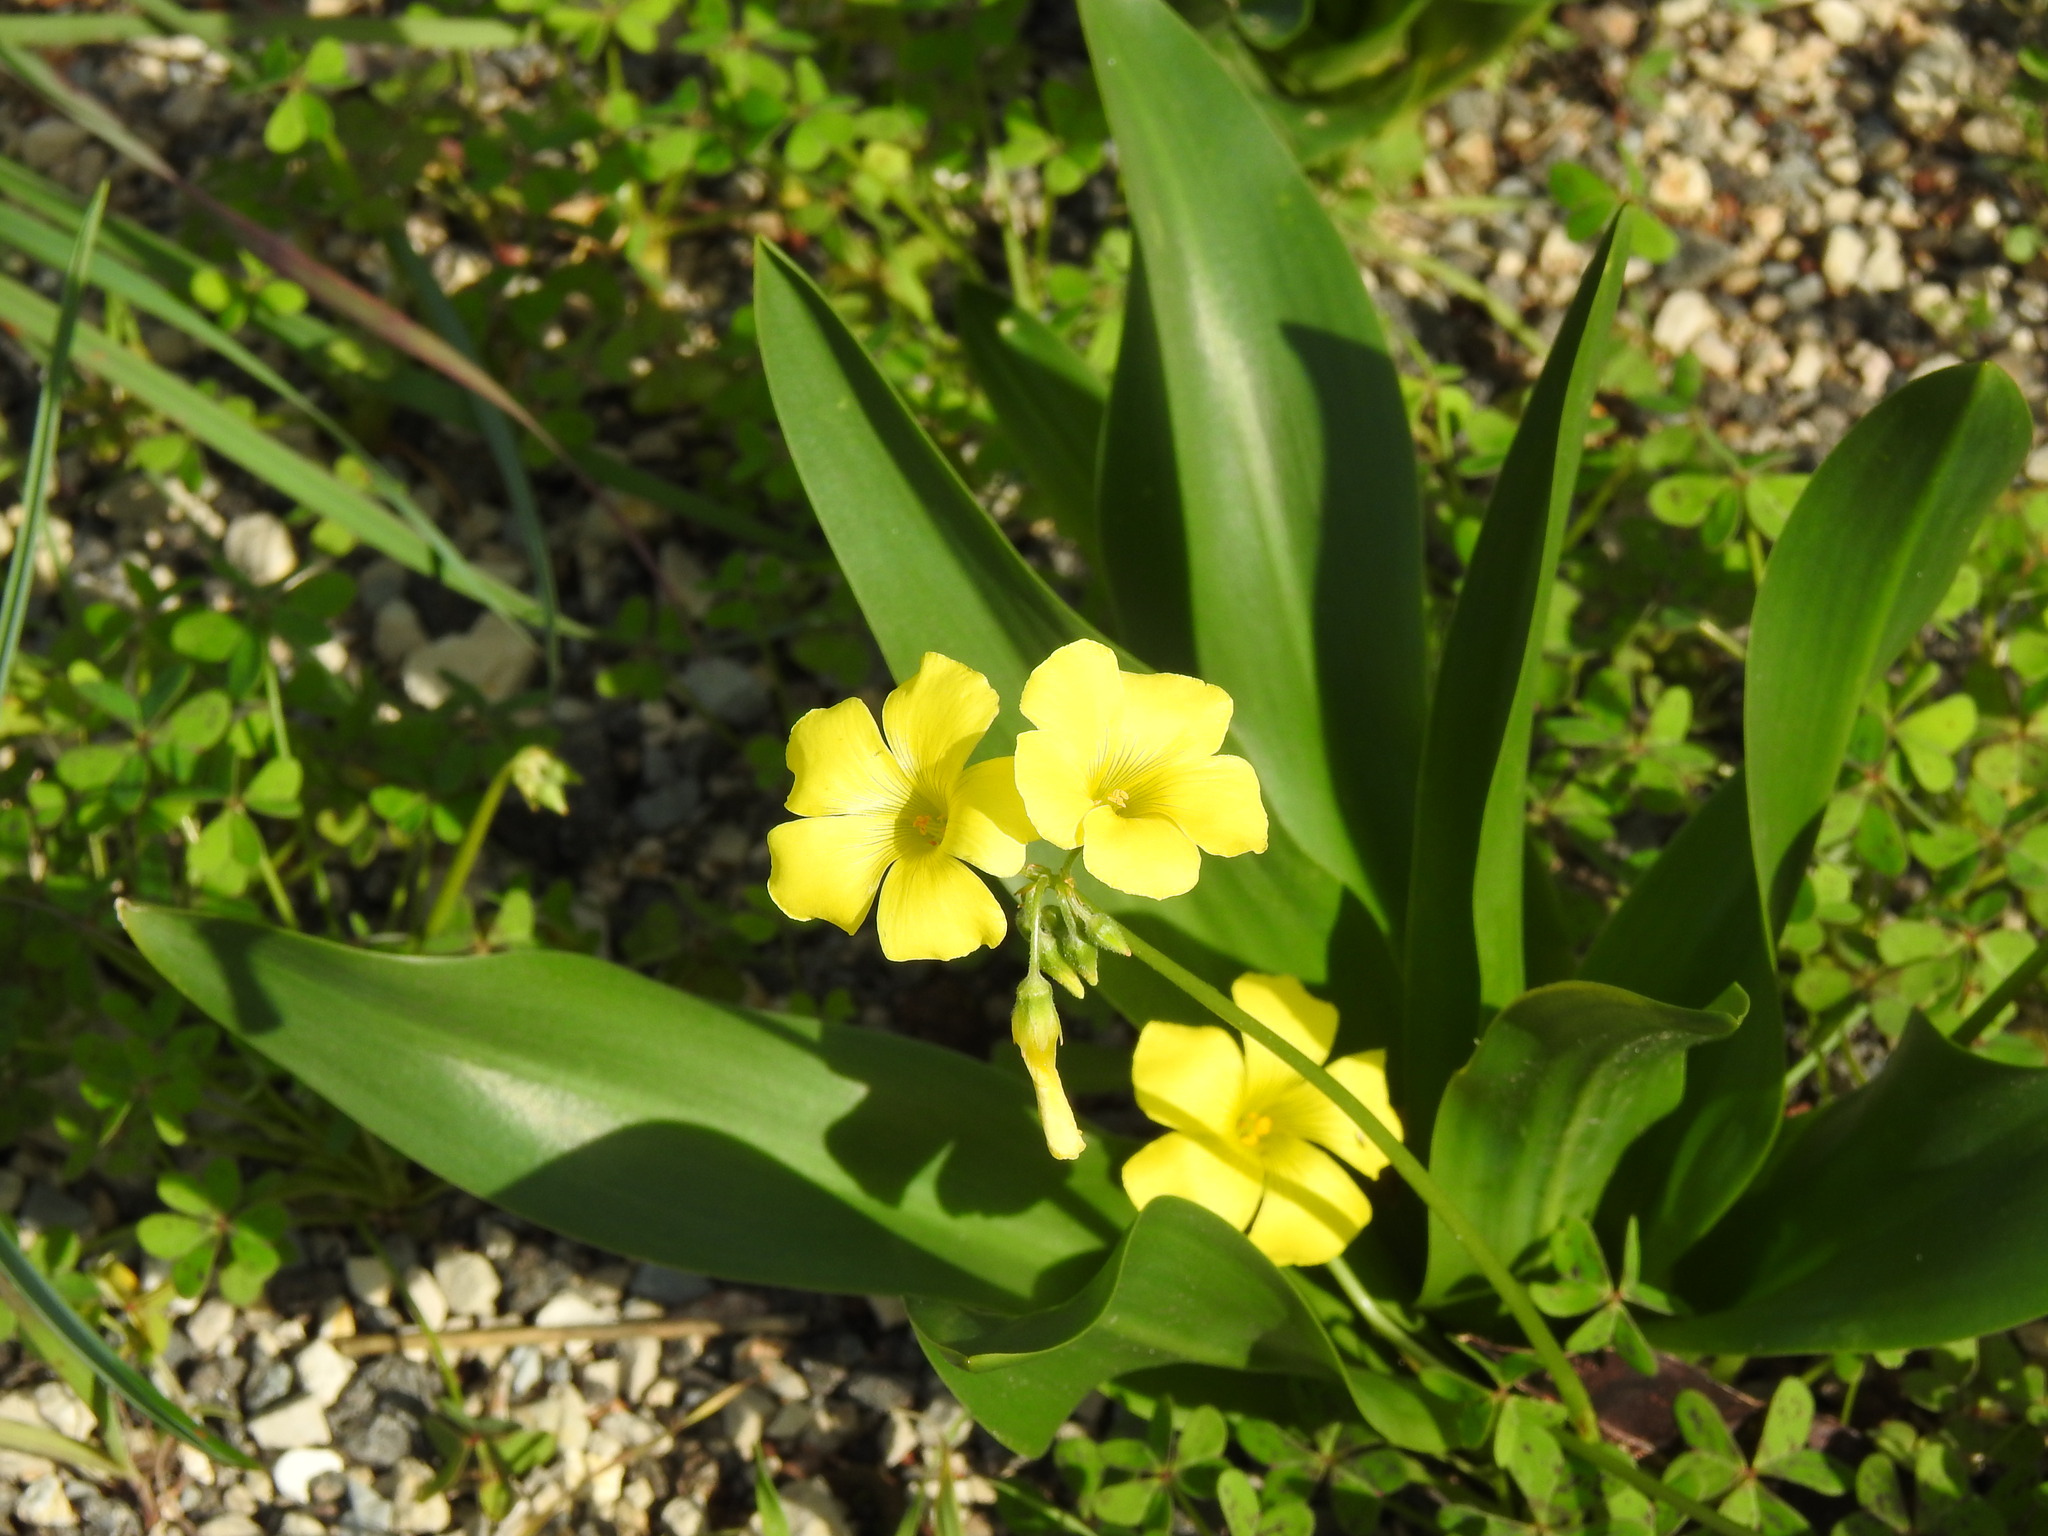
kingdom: Plantae
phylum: Tracheophyta
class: Magnoliopsida
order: Oxalidales
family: Oxalidaceae
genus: Oxalis
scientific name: Oxalis pes-caprae
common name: Bermuda-buttercup
